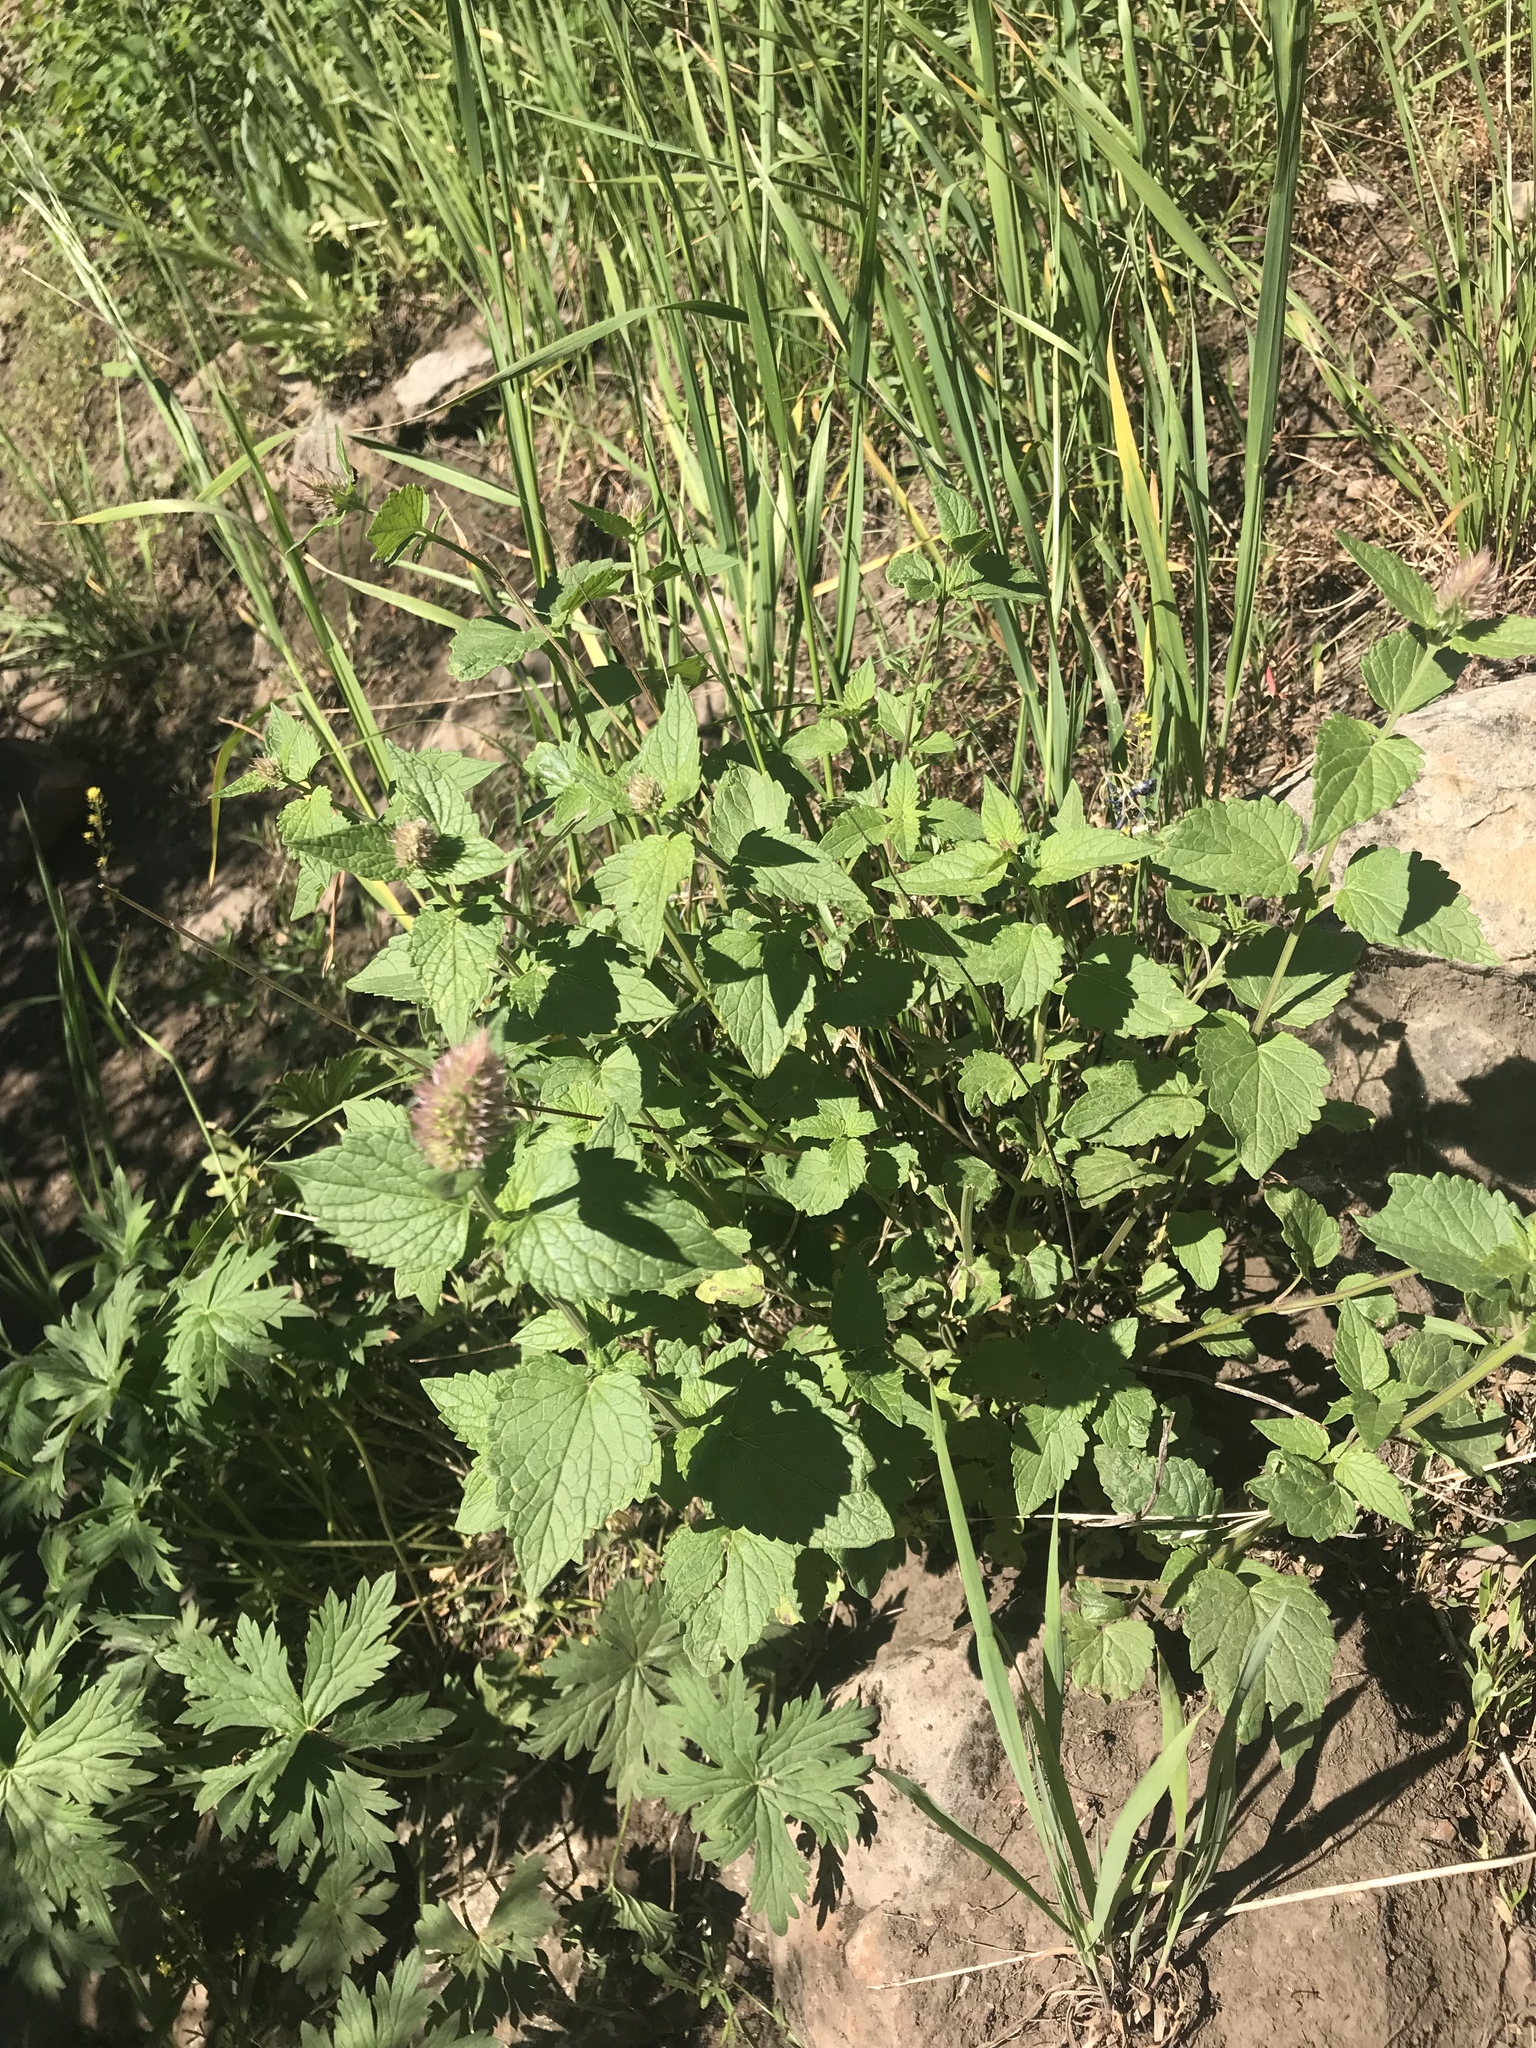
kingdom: Plantae
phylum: Tracheophyta
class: Magnoliopsida
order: Lamiales
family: Lamiaceae
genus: Agastache
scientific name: Agastache urticifolia
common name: Horsemint giant hyssop
